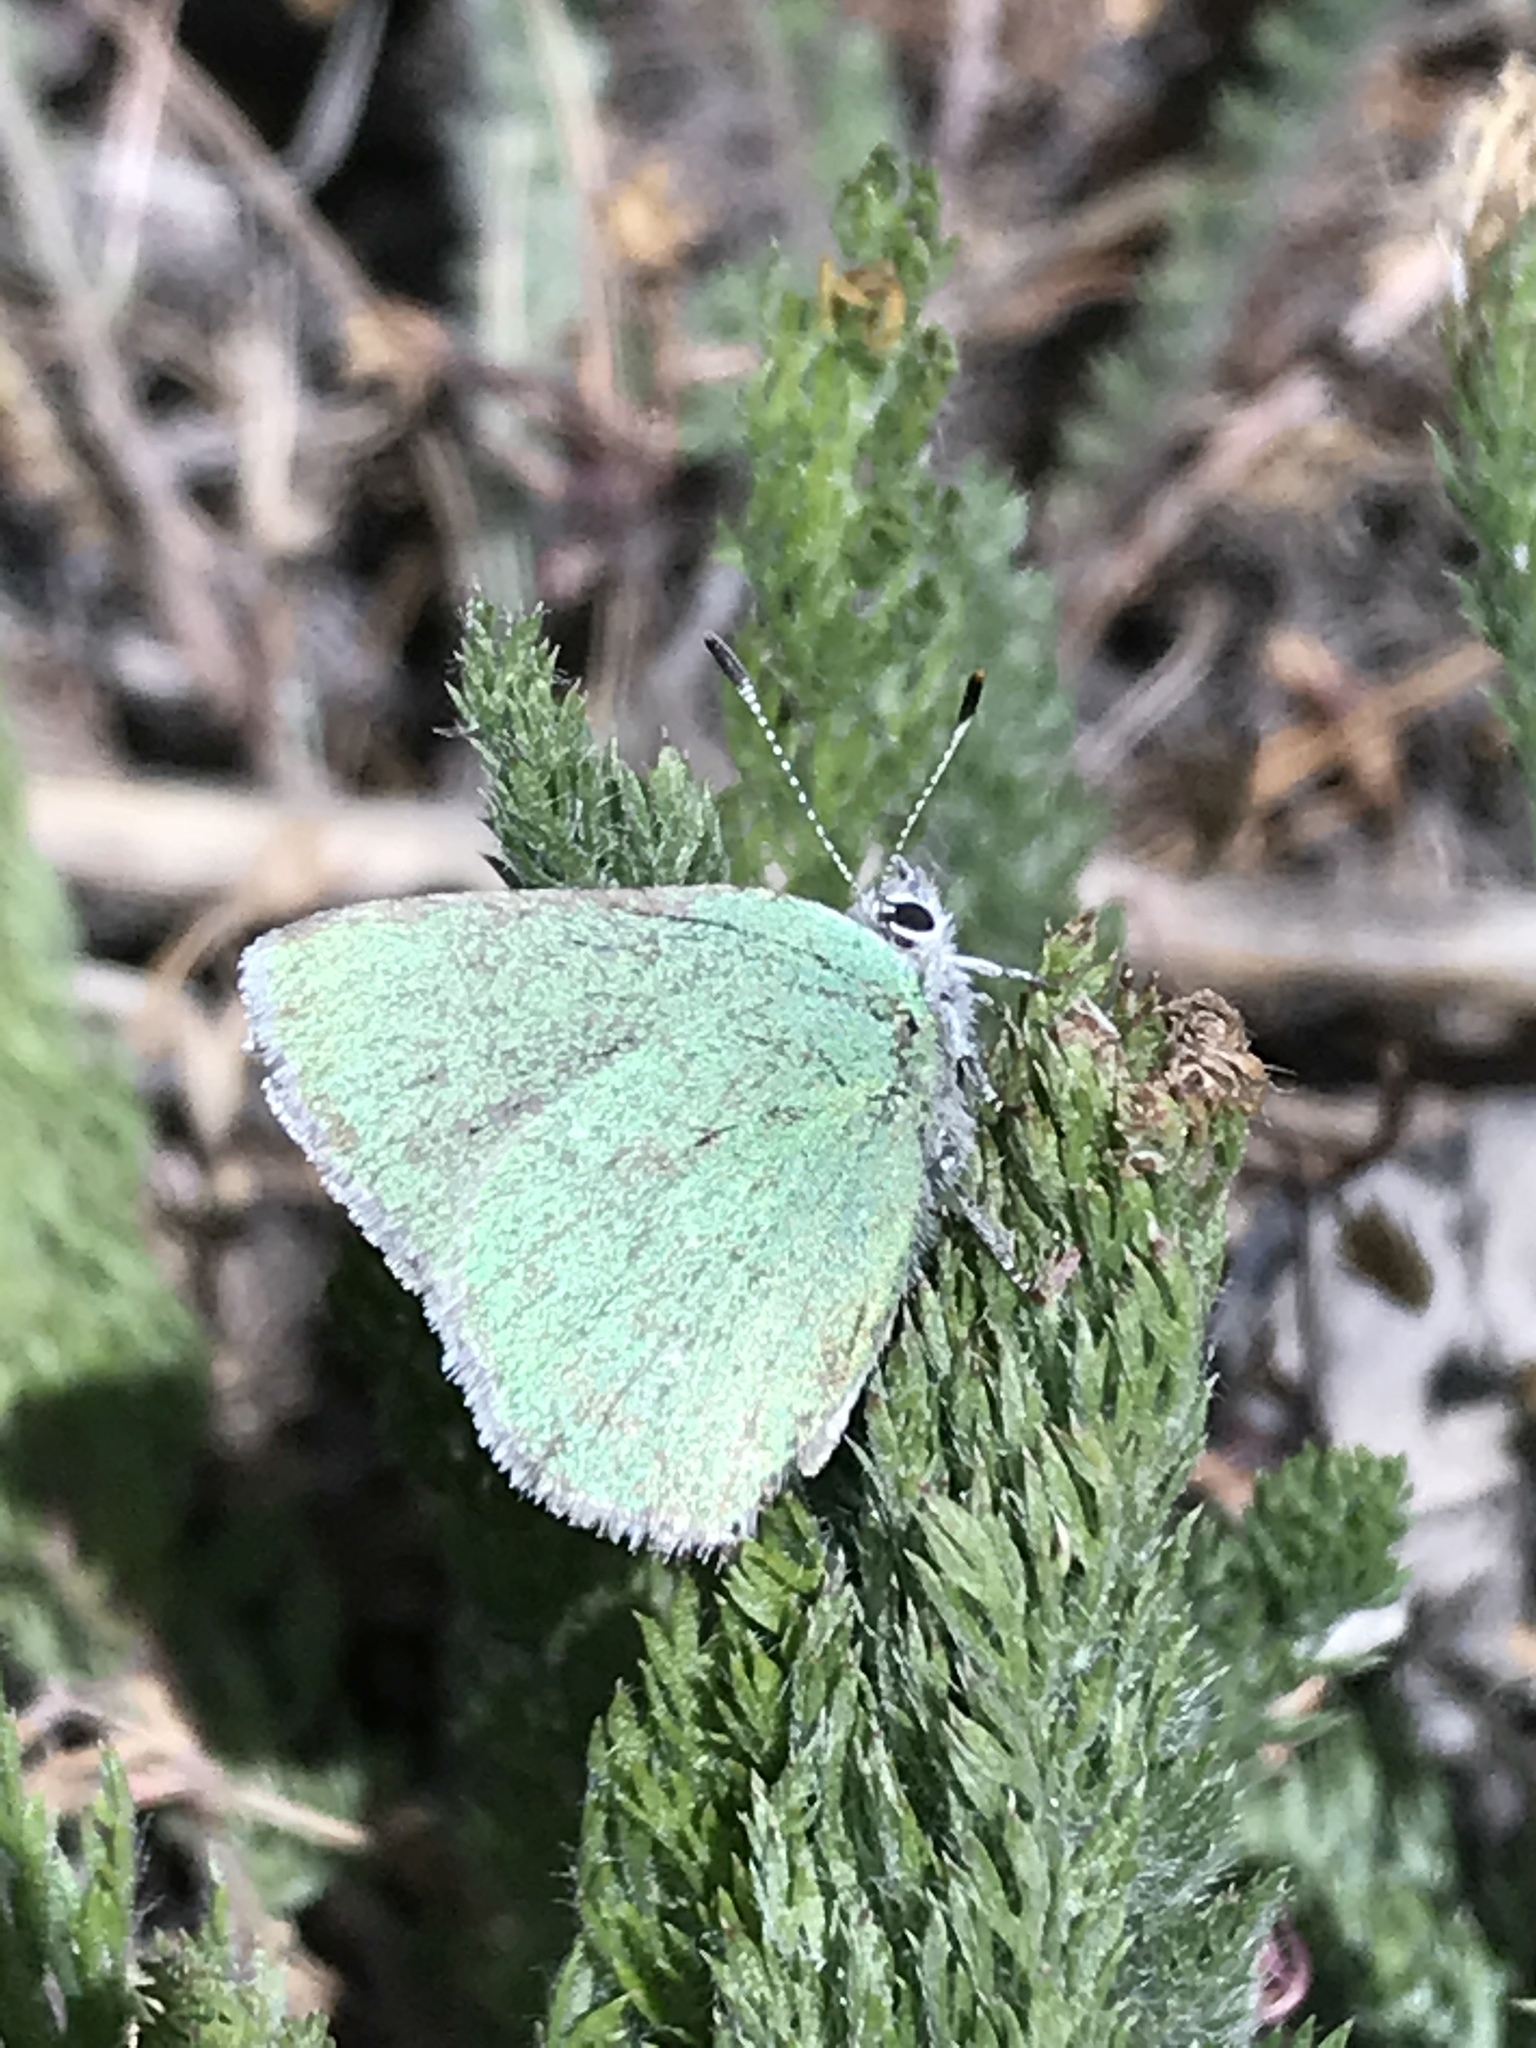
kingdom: Animalia
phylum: Arthropoda
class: Insecta
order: Lepidoptera
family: Lycaenidae
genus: Callophrys
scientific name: Callophrys affinis
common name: Western green hairstreak
